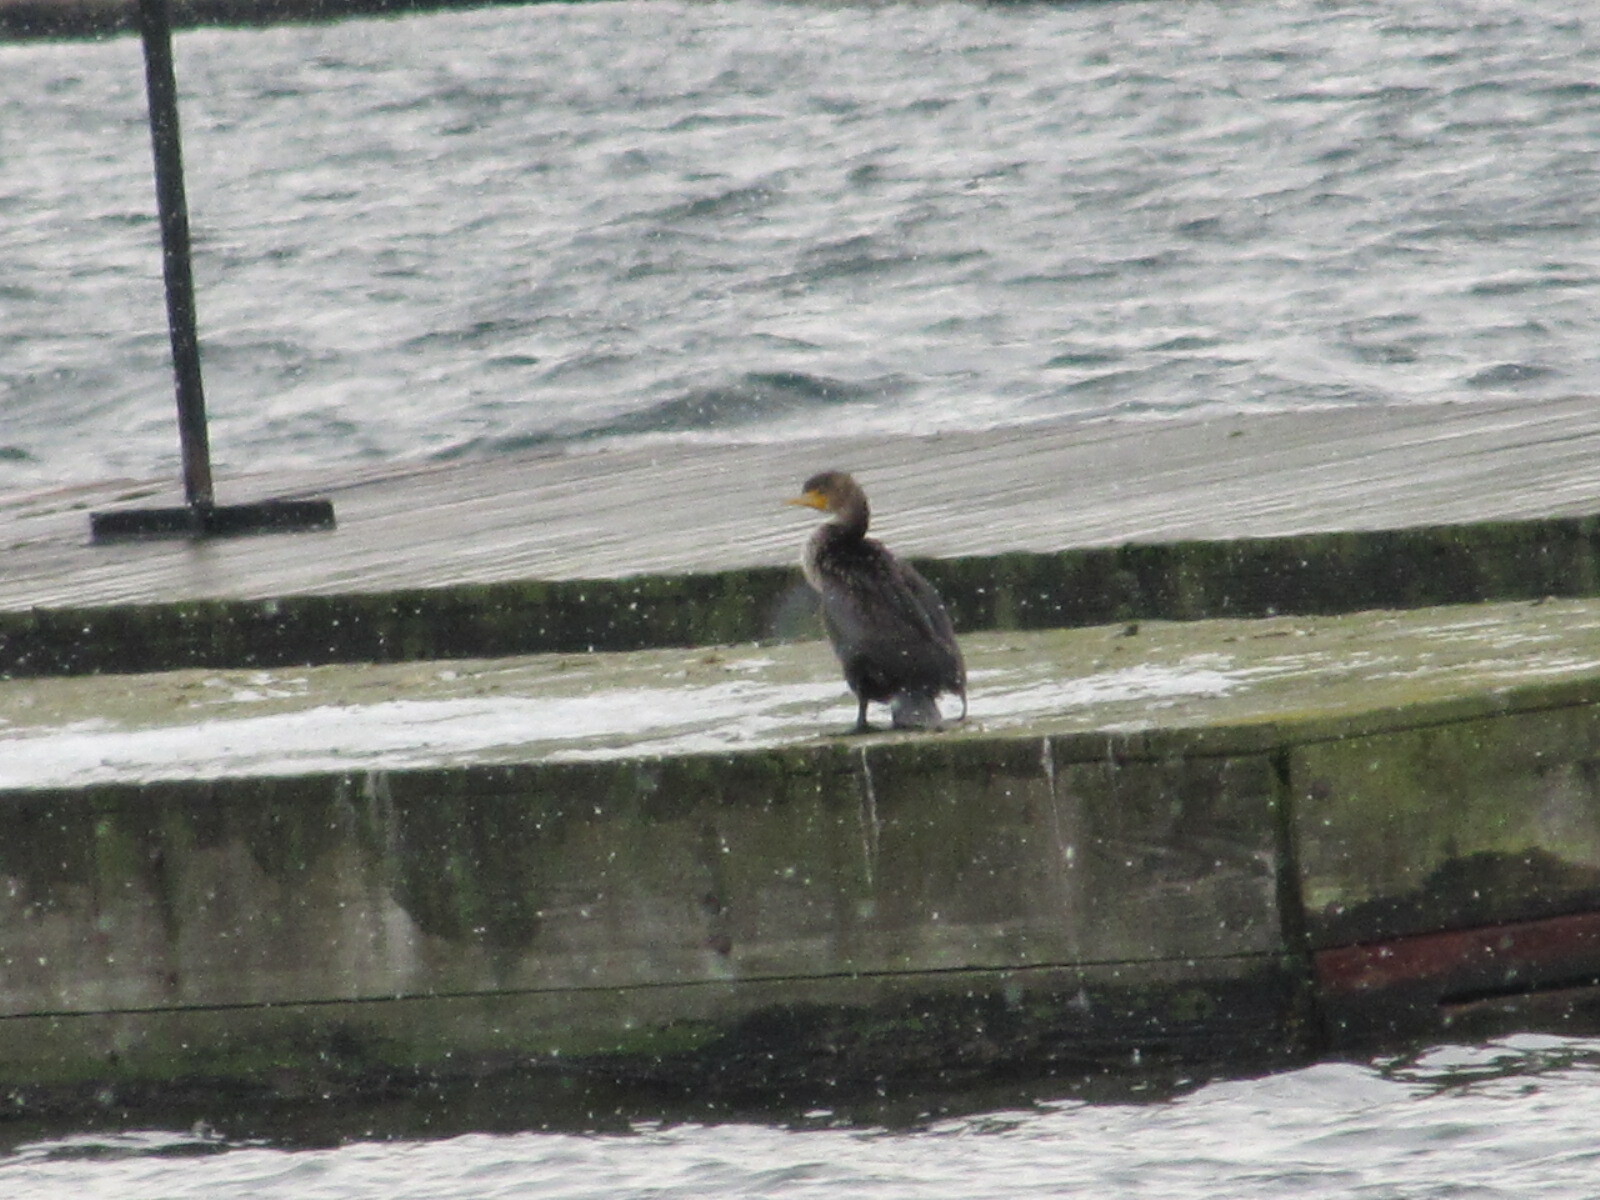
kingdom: Animalia
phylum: Chordata
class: Aves
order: Suliformes
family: Phalacrocoracidae
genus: Phalacrocorax
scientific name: Phalacrocorax auritus
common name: Double-crested cormorant
